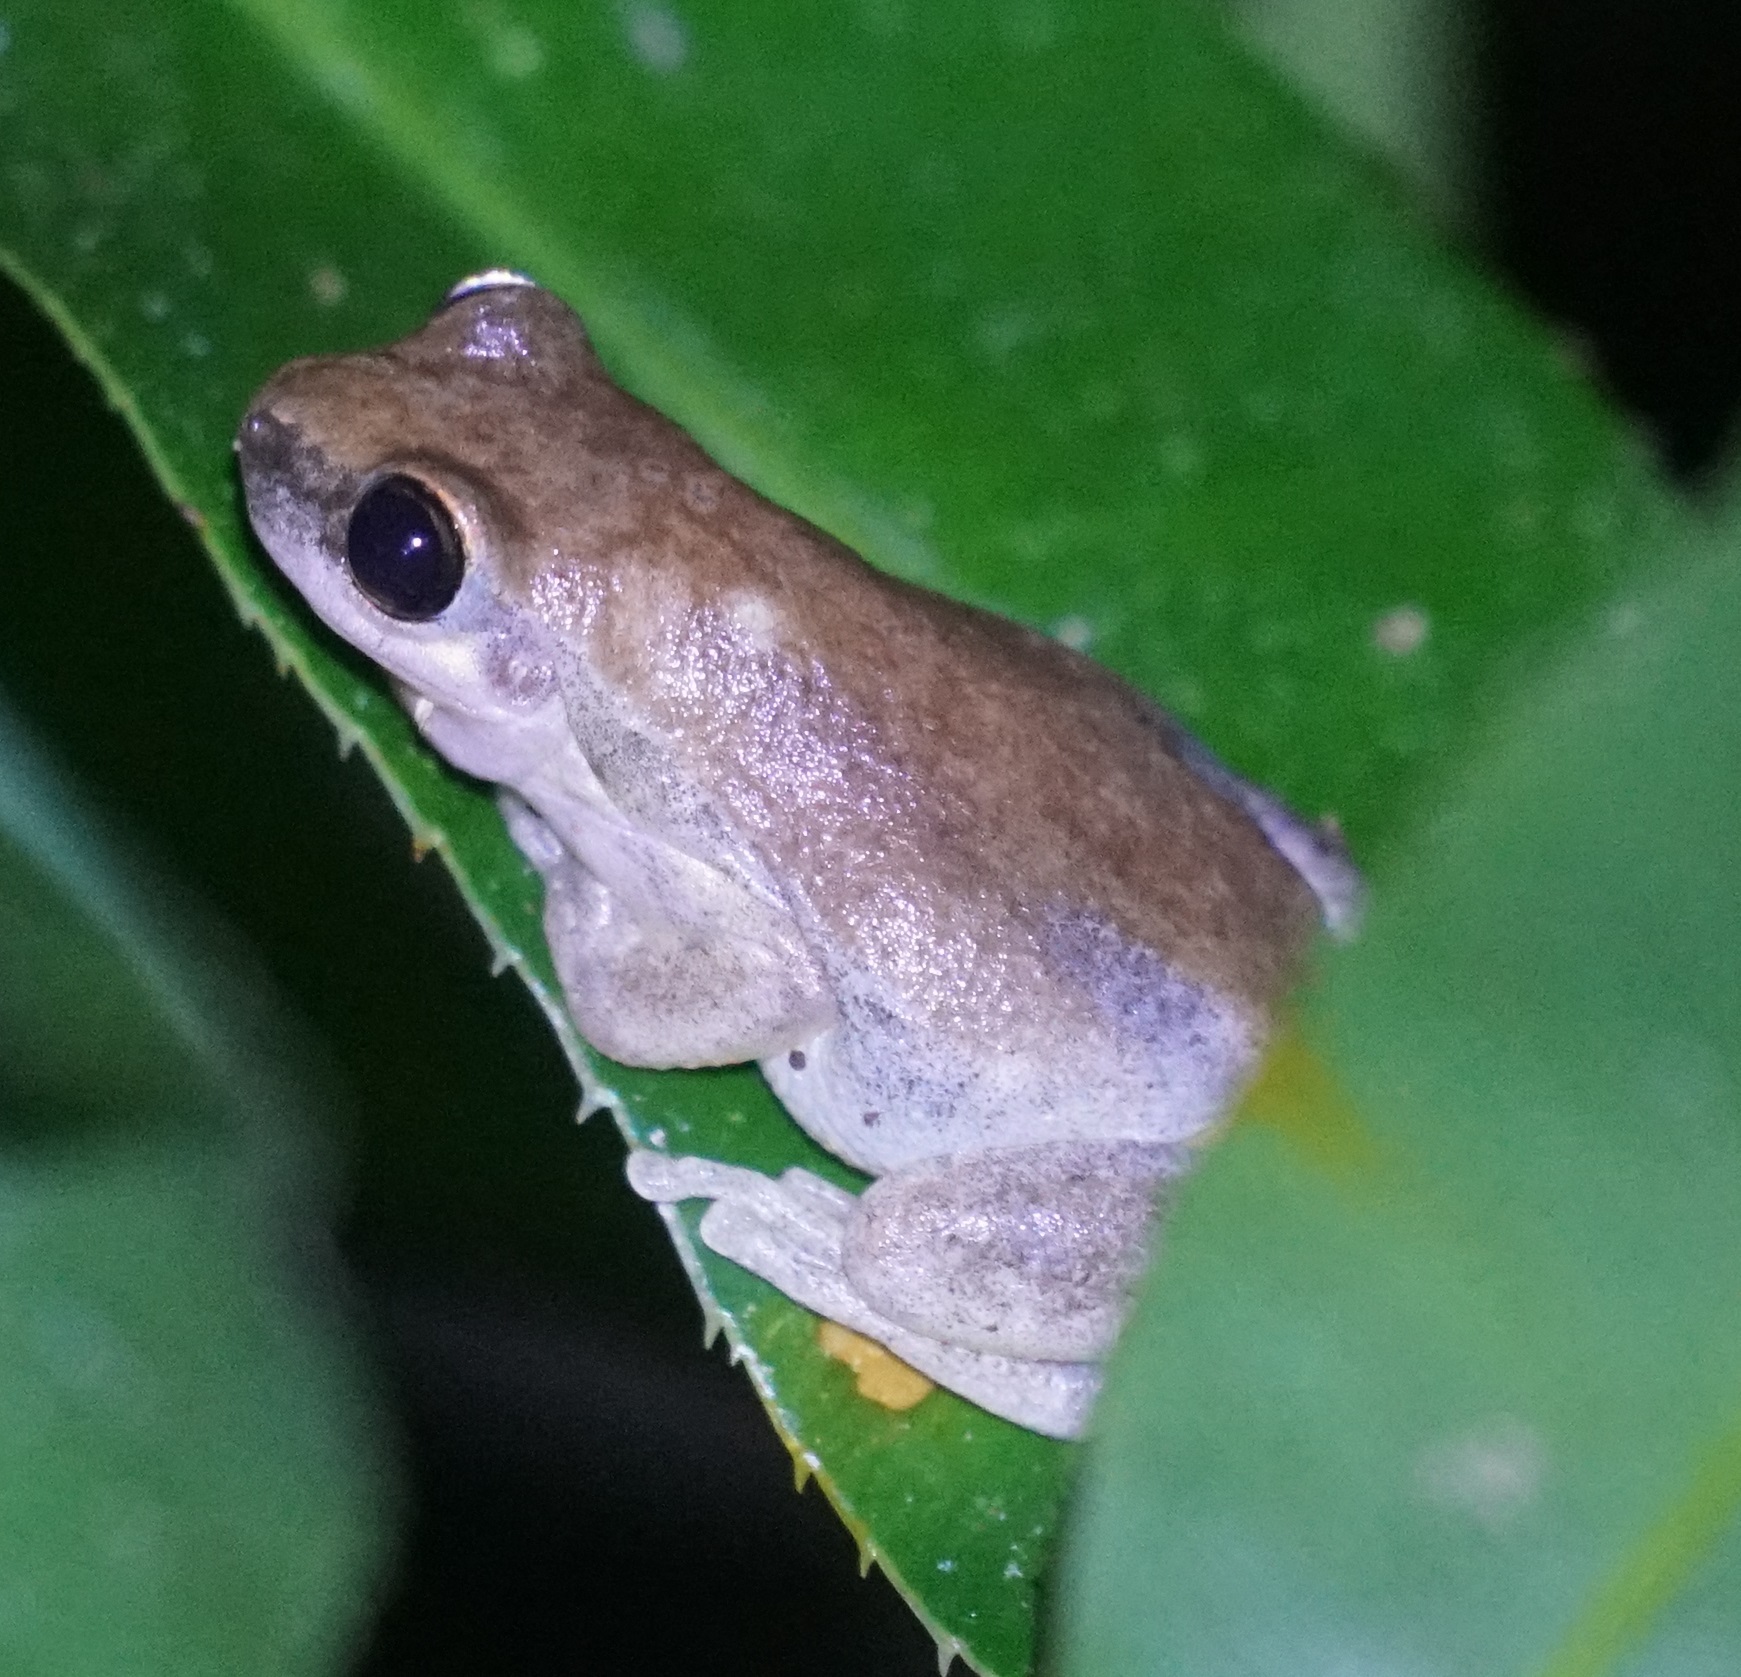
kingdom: Animalia
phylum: Chordata
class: Amphibia
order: Anura
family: Pelodryadidae
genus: Litoria
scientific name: Litoria rubella
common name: Desert tree frog
